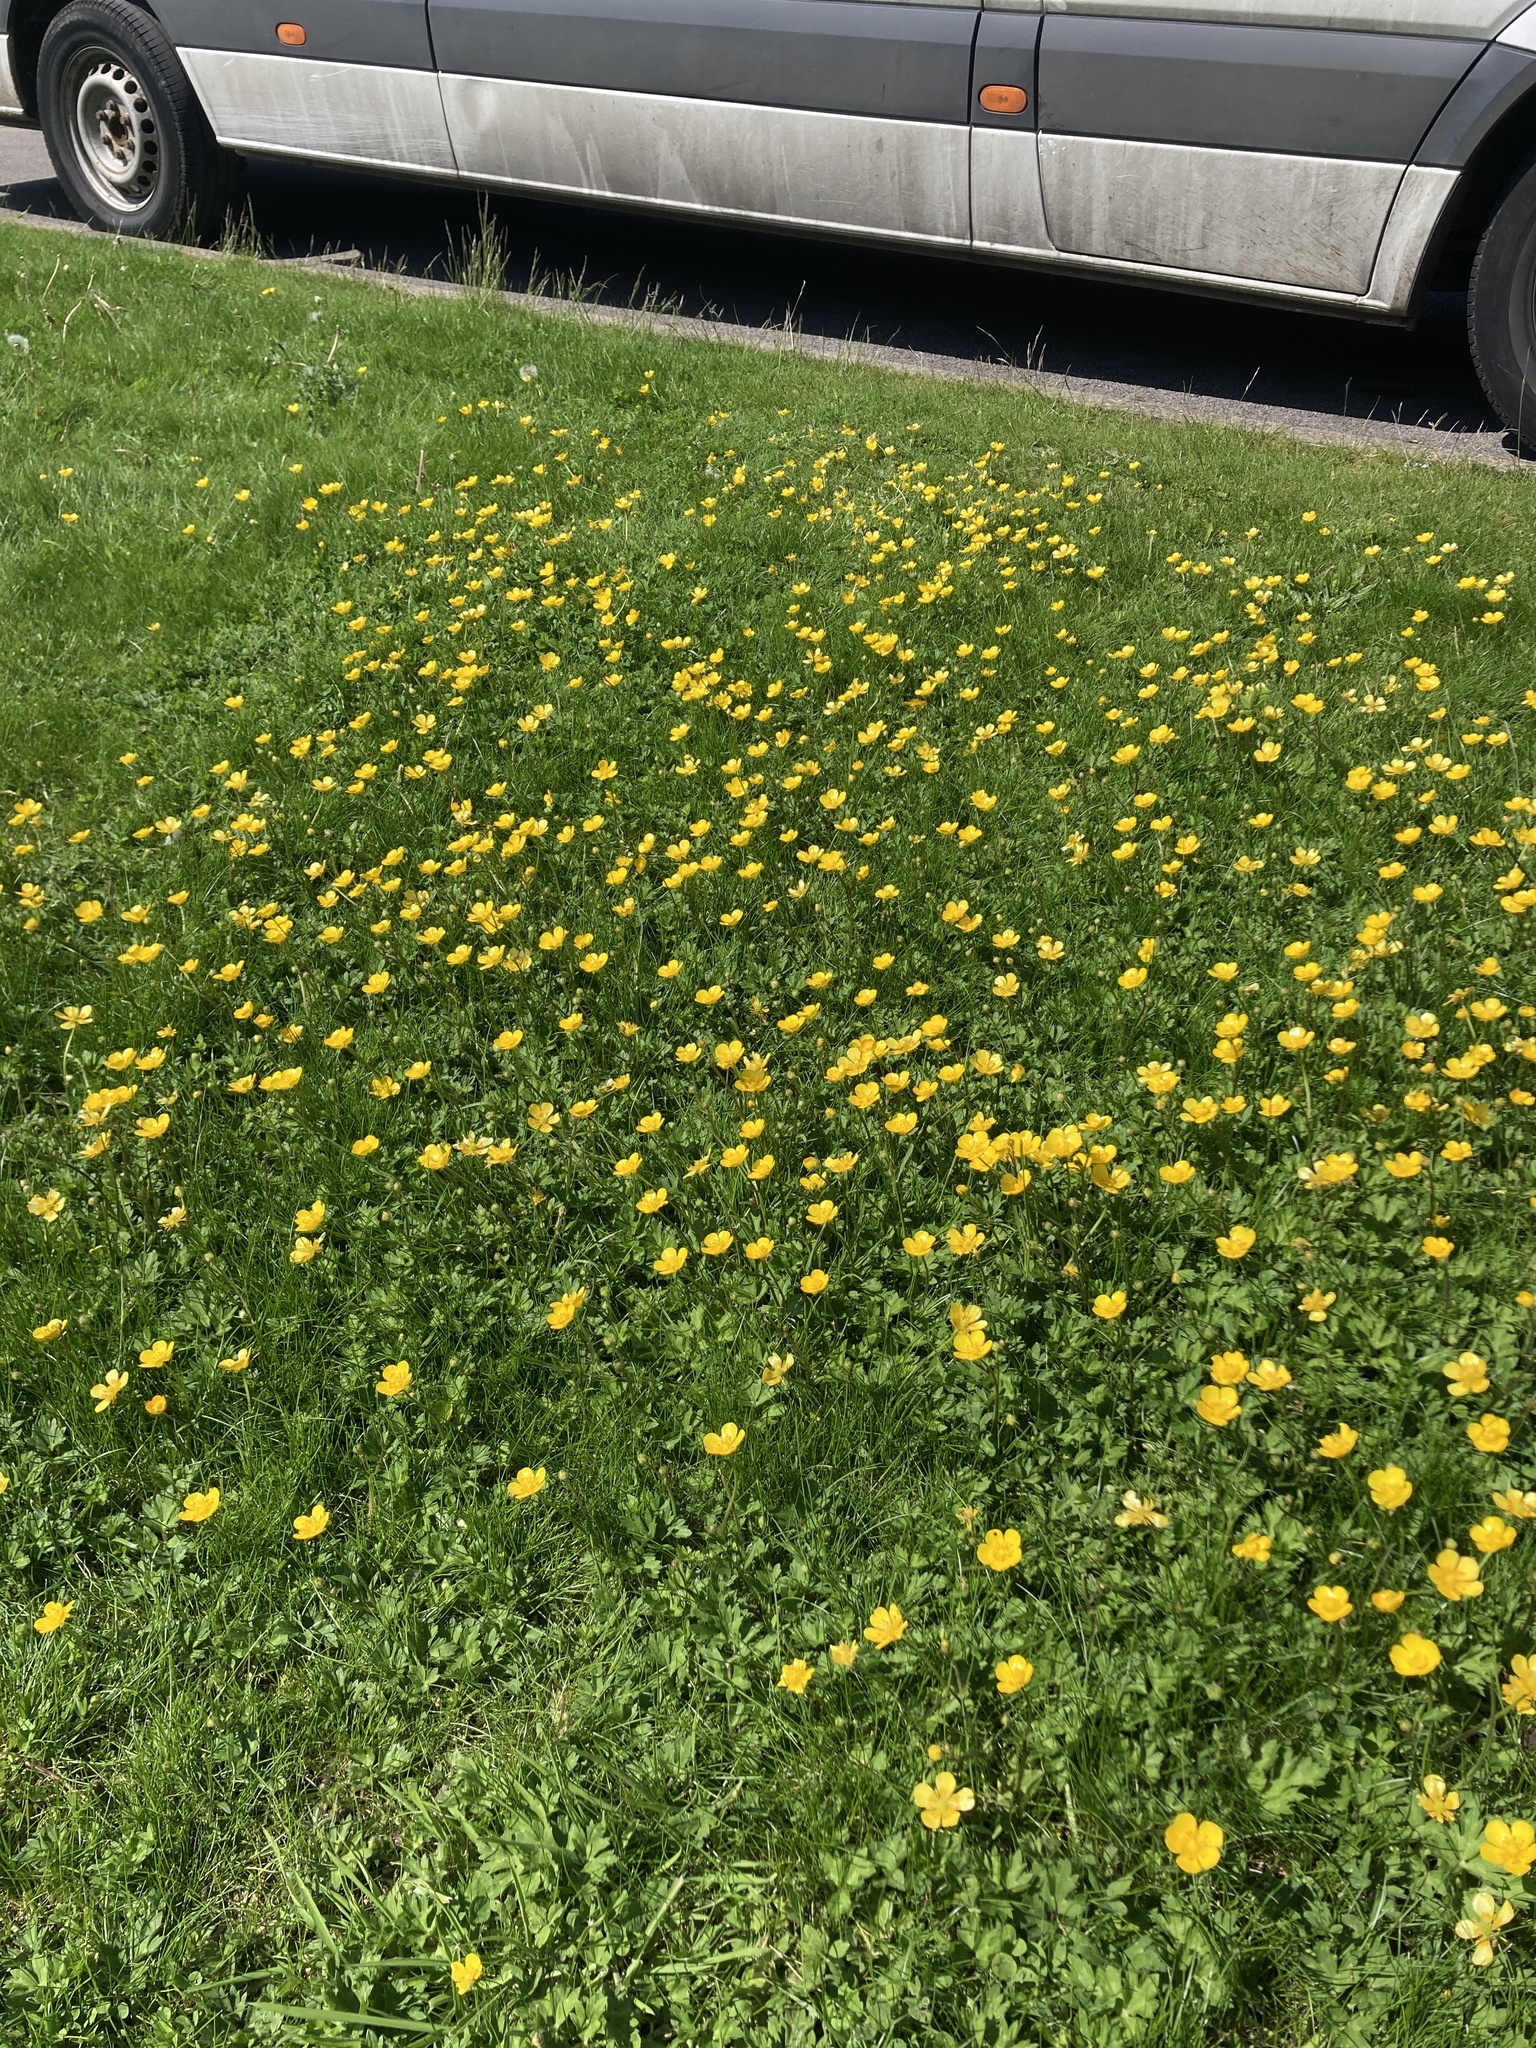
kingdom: Plantae
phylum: Tracheophyta
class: Magnoliopsida
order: Ranunculales
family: Ranunculaceae
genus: Ranunculus
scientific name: Ranunculus repens
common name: Creeping buttercup
